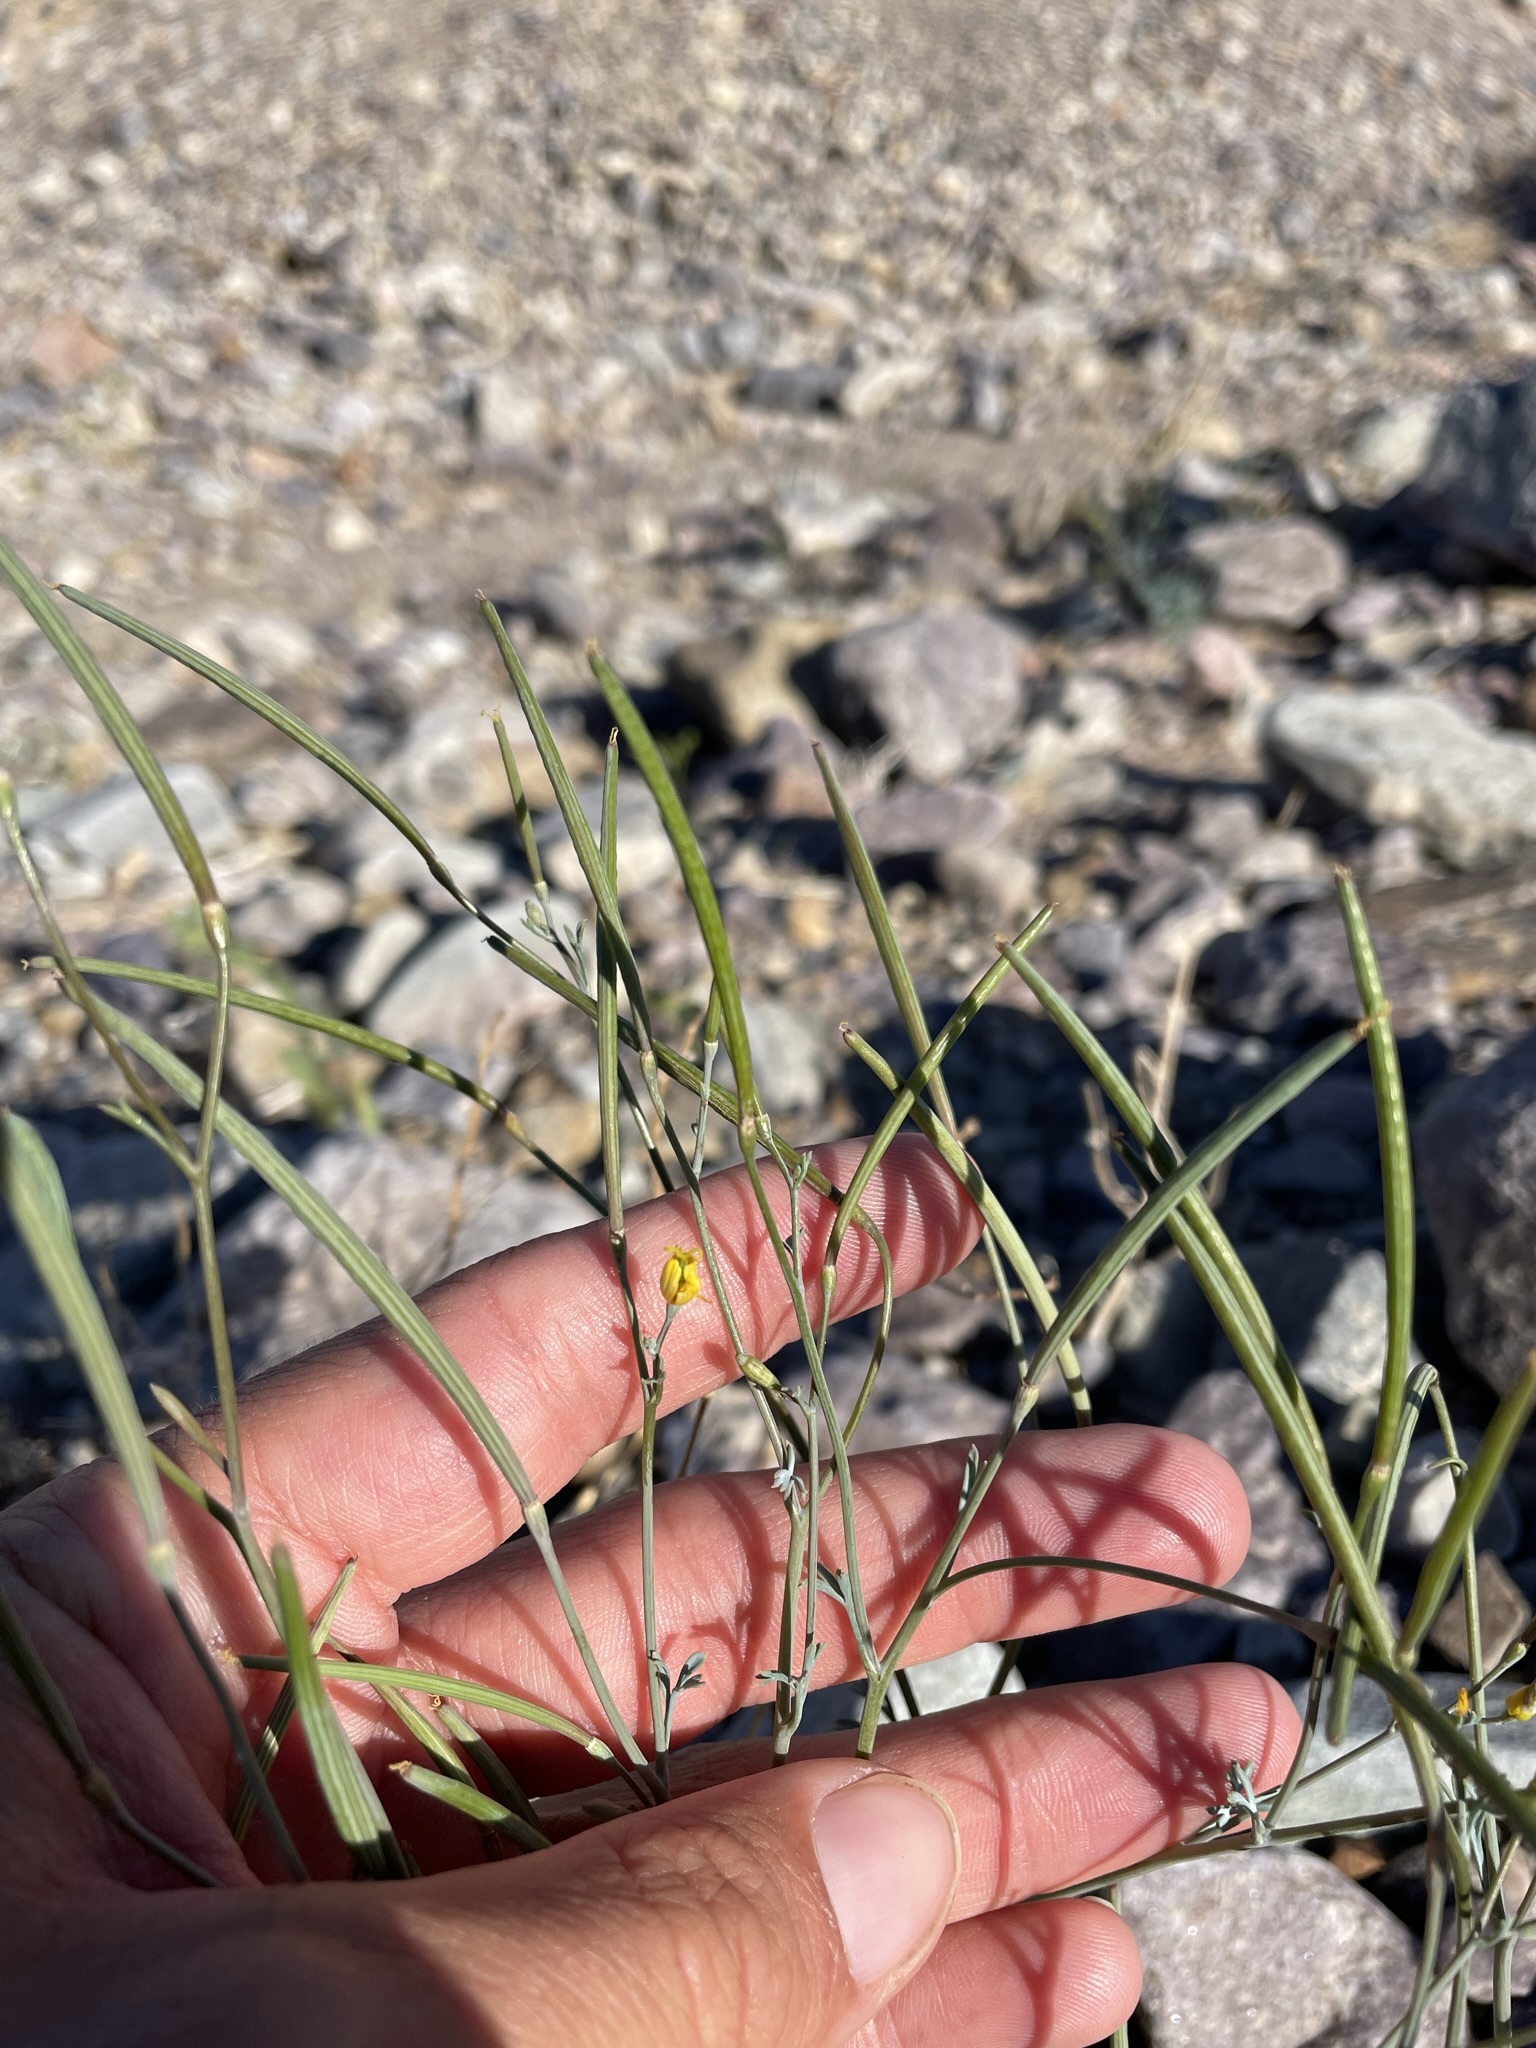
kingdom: Plantae
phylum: Tracheophyta
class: Magnoliopsida
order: Ranunculales
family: Papaveraceae
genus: Eschscholzia
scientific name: Eschscholzia minutiflora
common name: Small-flower california-poppy
